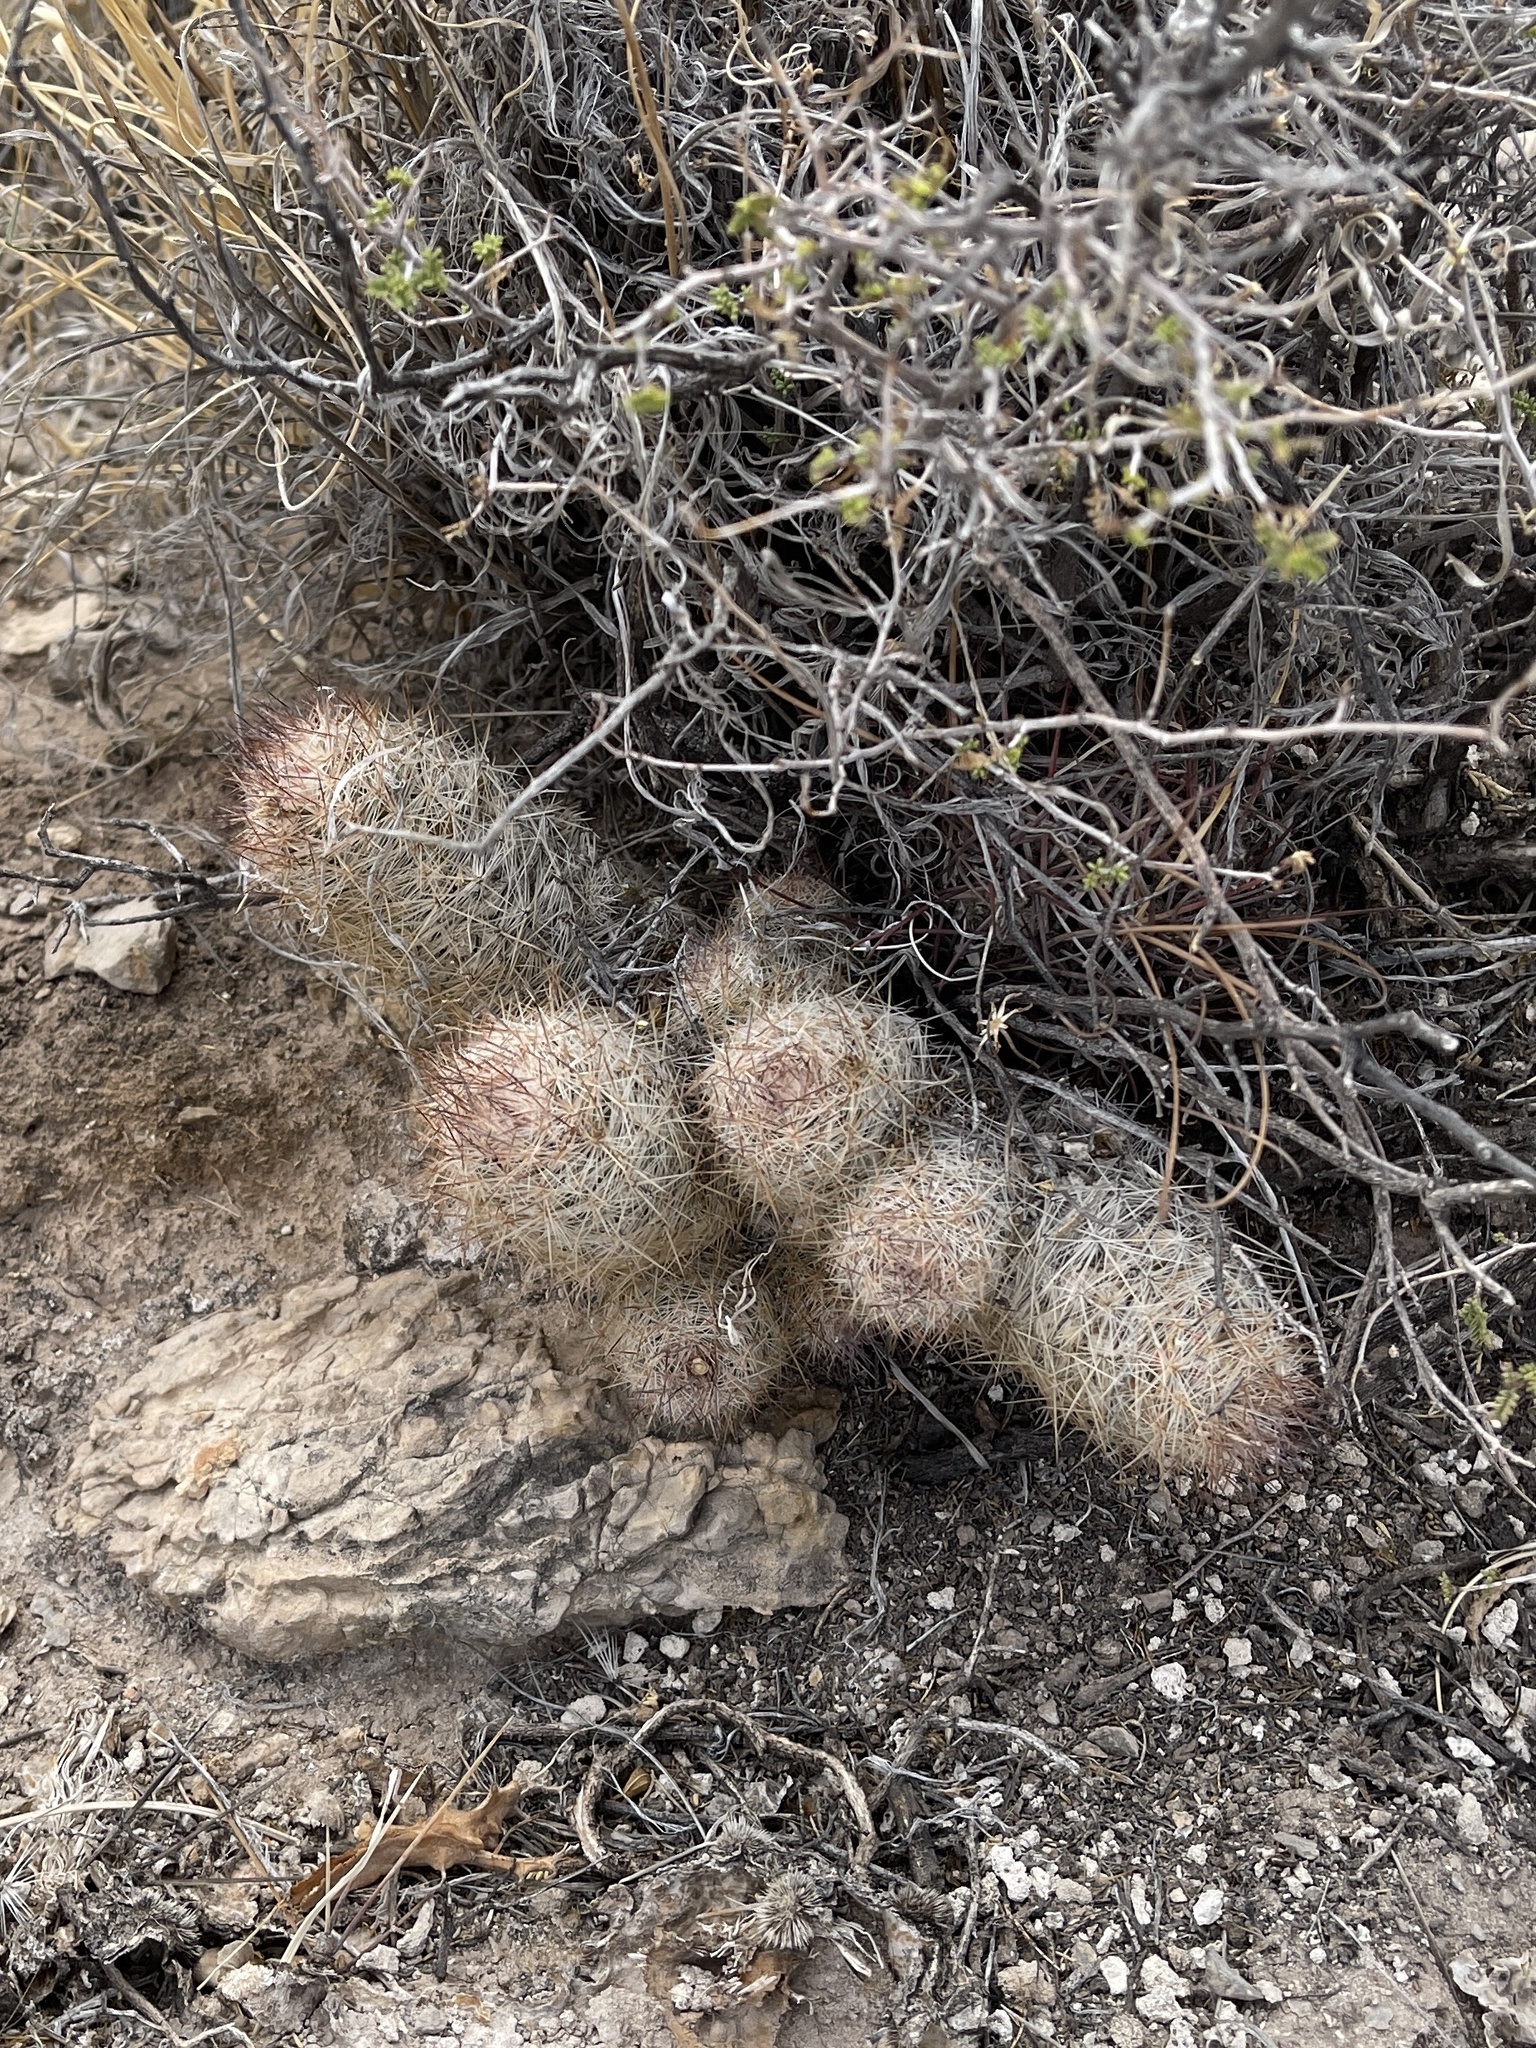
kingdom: Plantae
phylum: Tracheophyta
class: Magnoliopsida
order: Caryophyllales
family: Cactaceae
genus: Pelecyphora
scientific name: Pelecyphora tuberculosa
